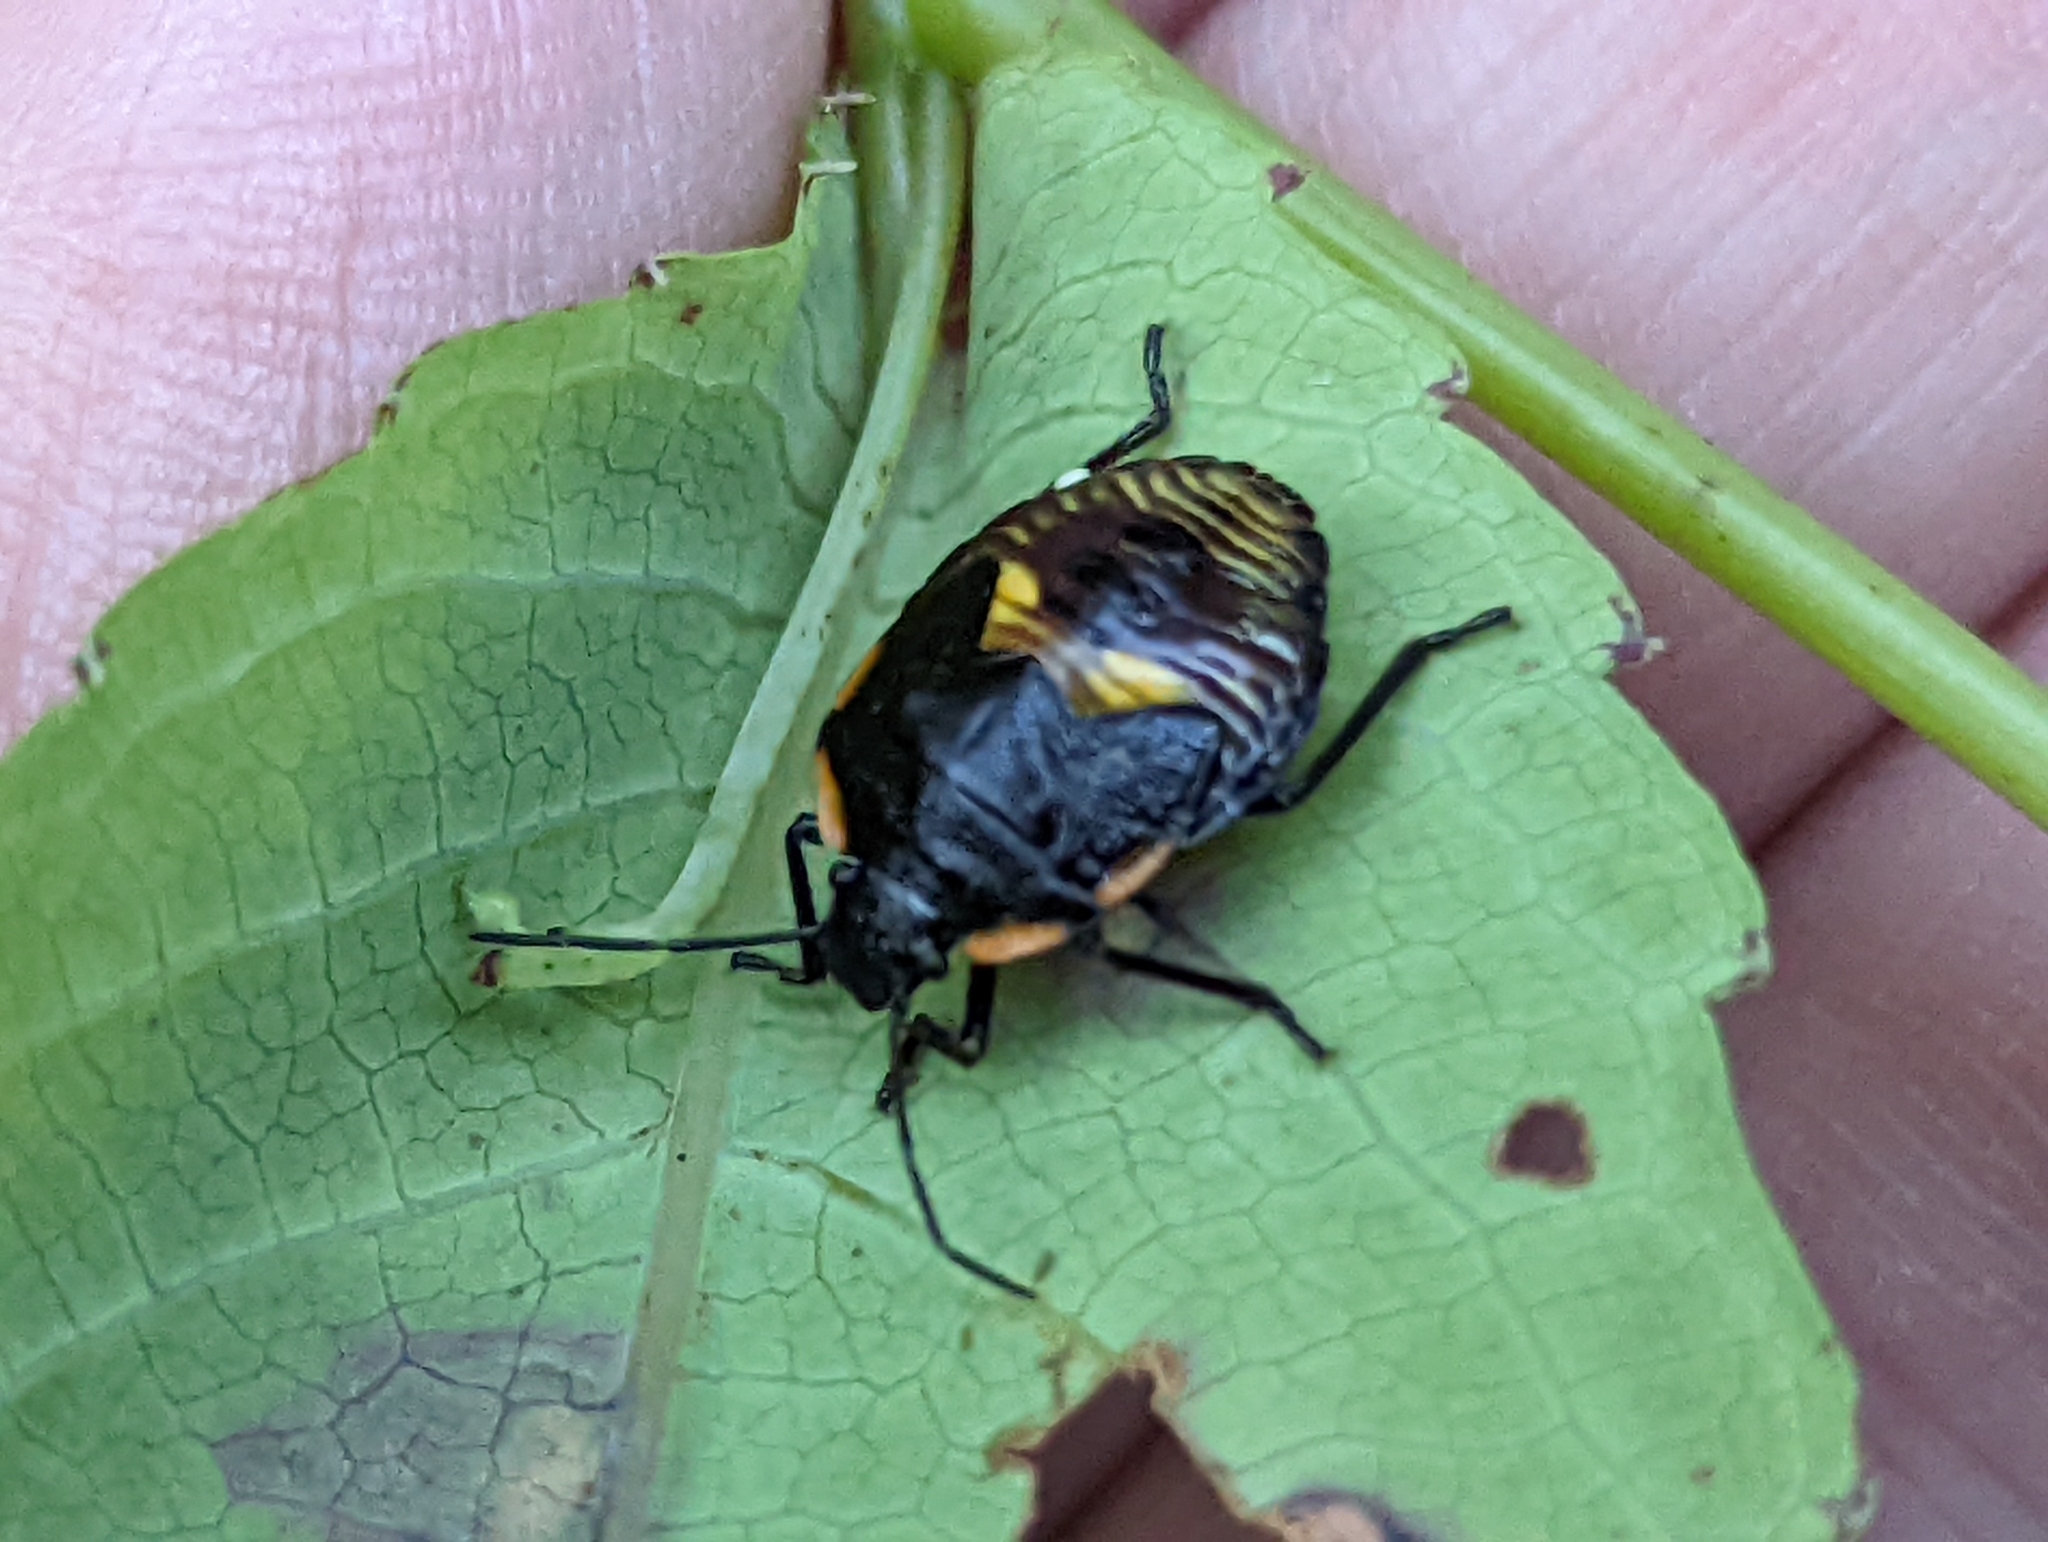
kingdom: Animalia
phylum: Arthropoda
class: Insecta
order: Hemiptera
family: Pentatomidae
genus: Chinavia
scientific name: Chinavia hilaris
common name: Green stink bug
